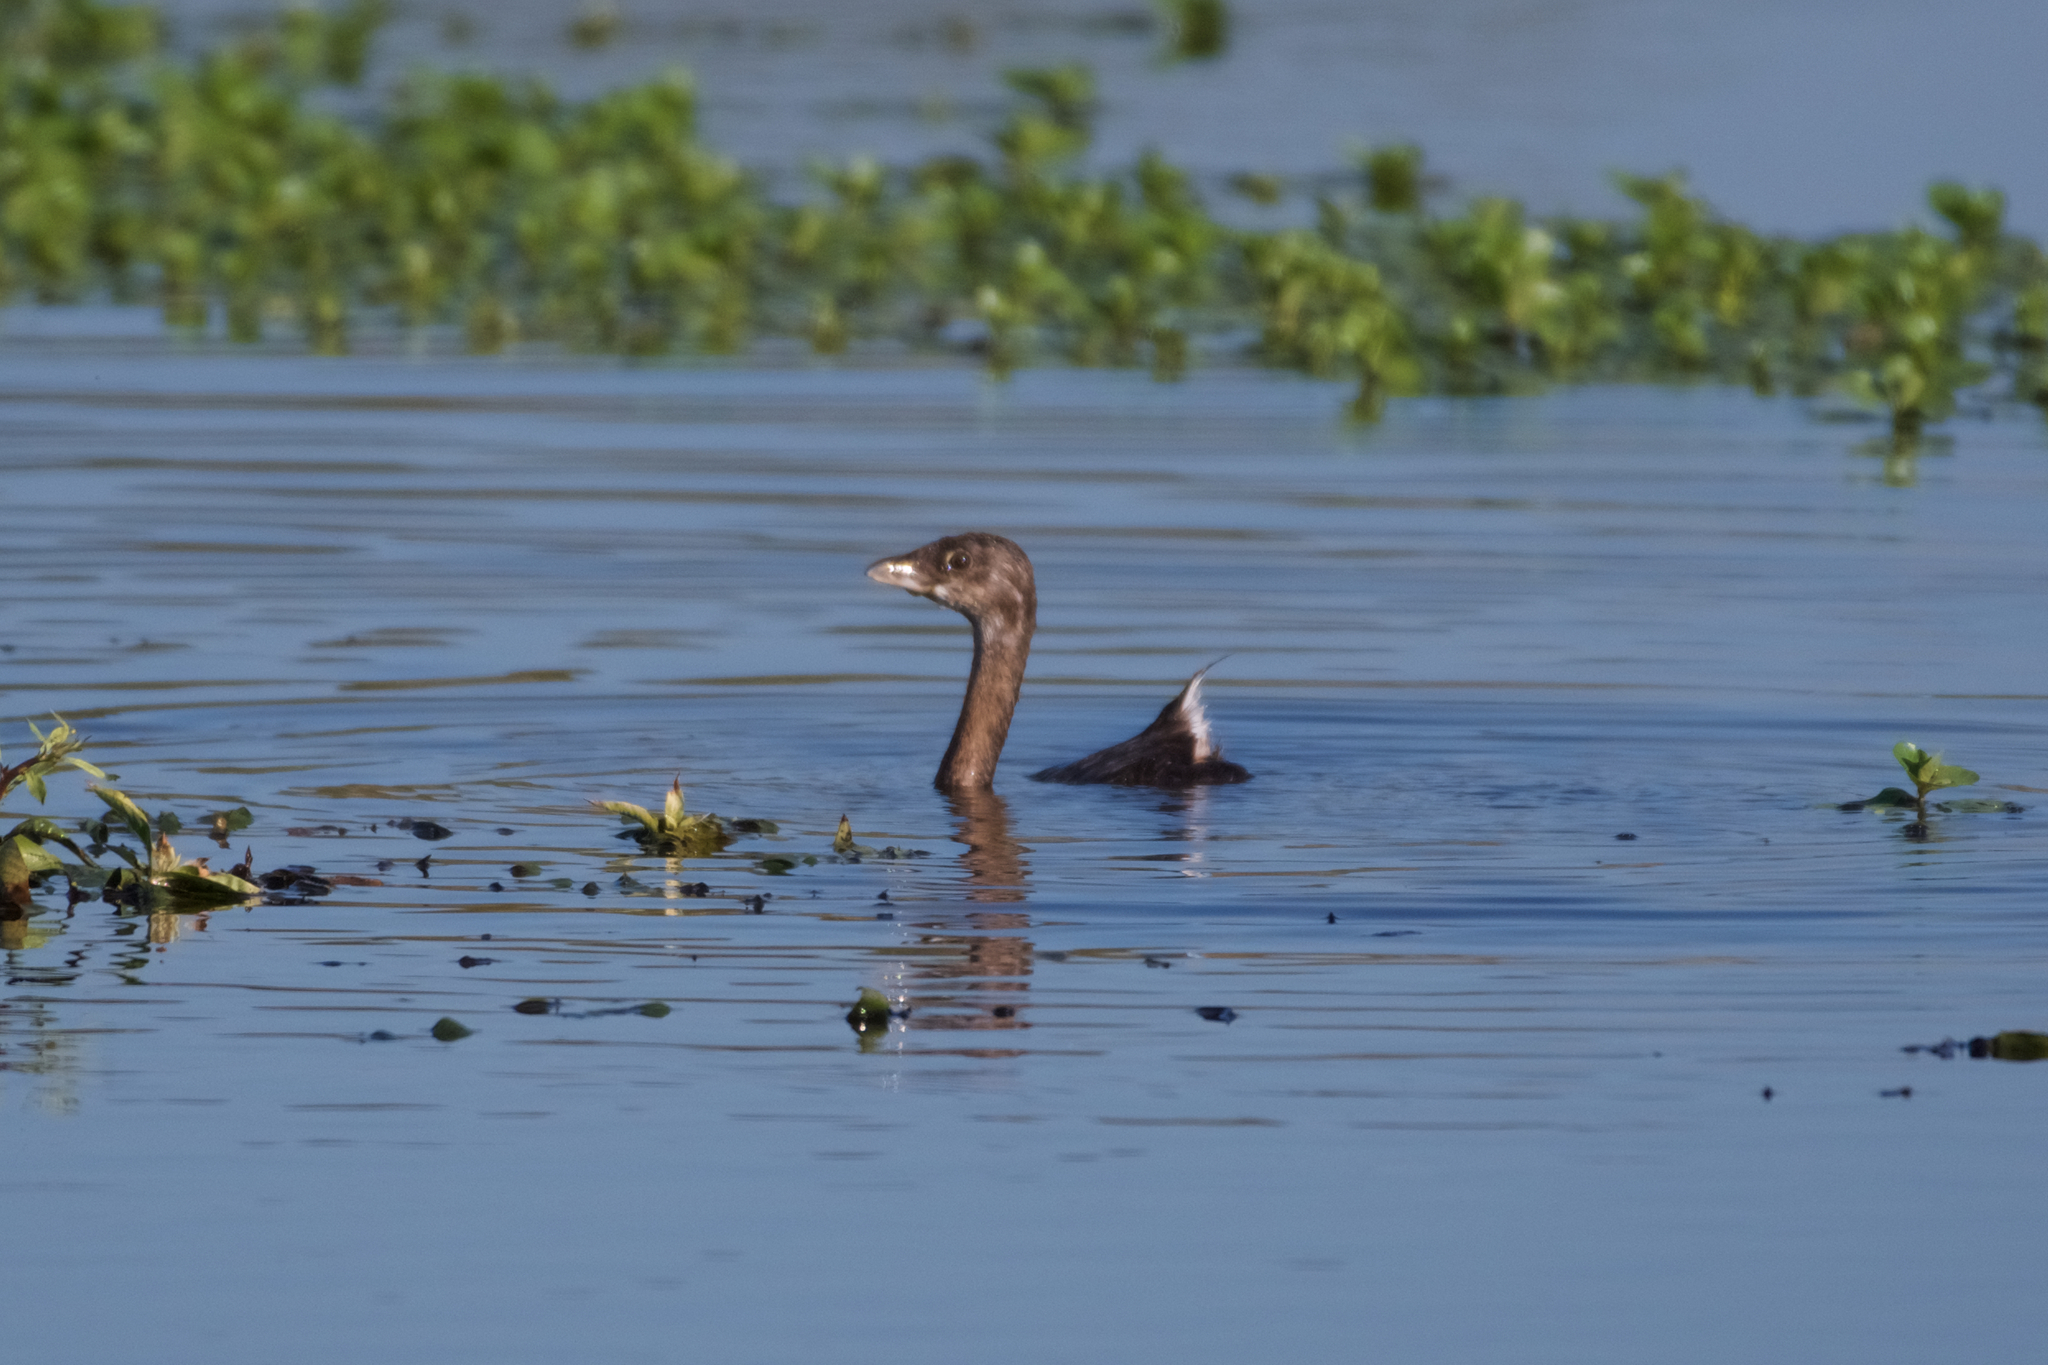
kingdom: Animalia
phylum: Chordata
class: Aves
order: Podicipediformes
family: Podicipedidae
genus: Podilymbus
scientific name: Podilymbus podiceps
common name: Pied-billed grebe
